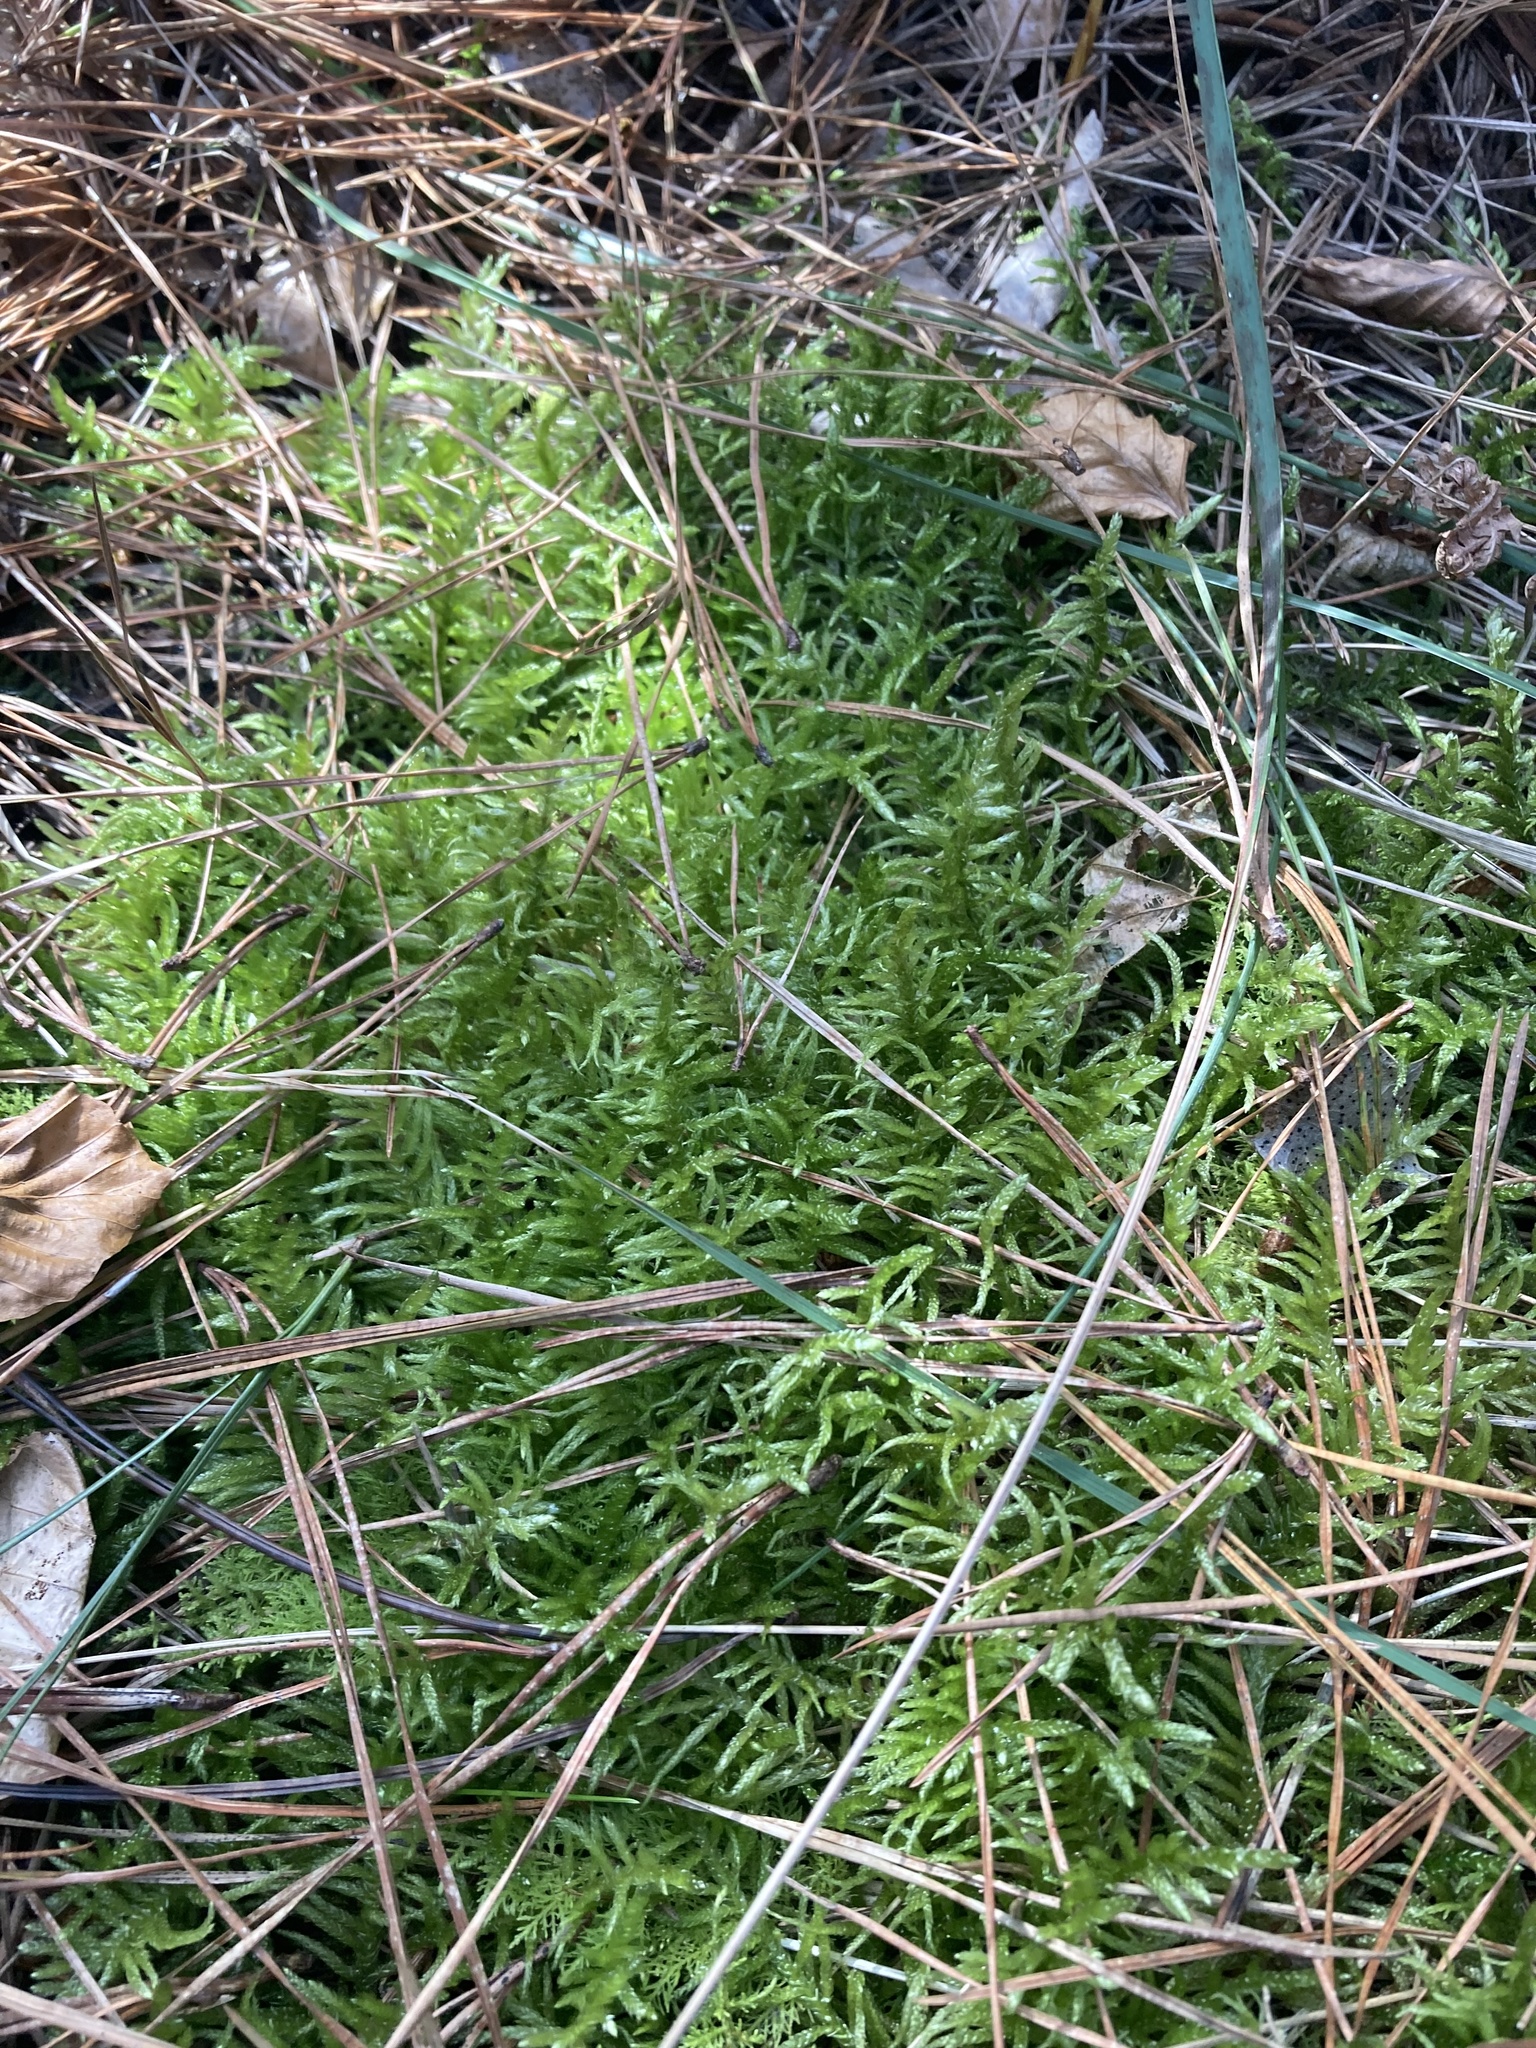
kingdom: Plantae
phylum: Bryophyta
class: Bryopsida
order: Hypnales
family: Brachytheciaceae
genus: Pseudoscleropodium
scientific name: Pseudoscleropodium purum
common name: Neat feather-moss
